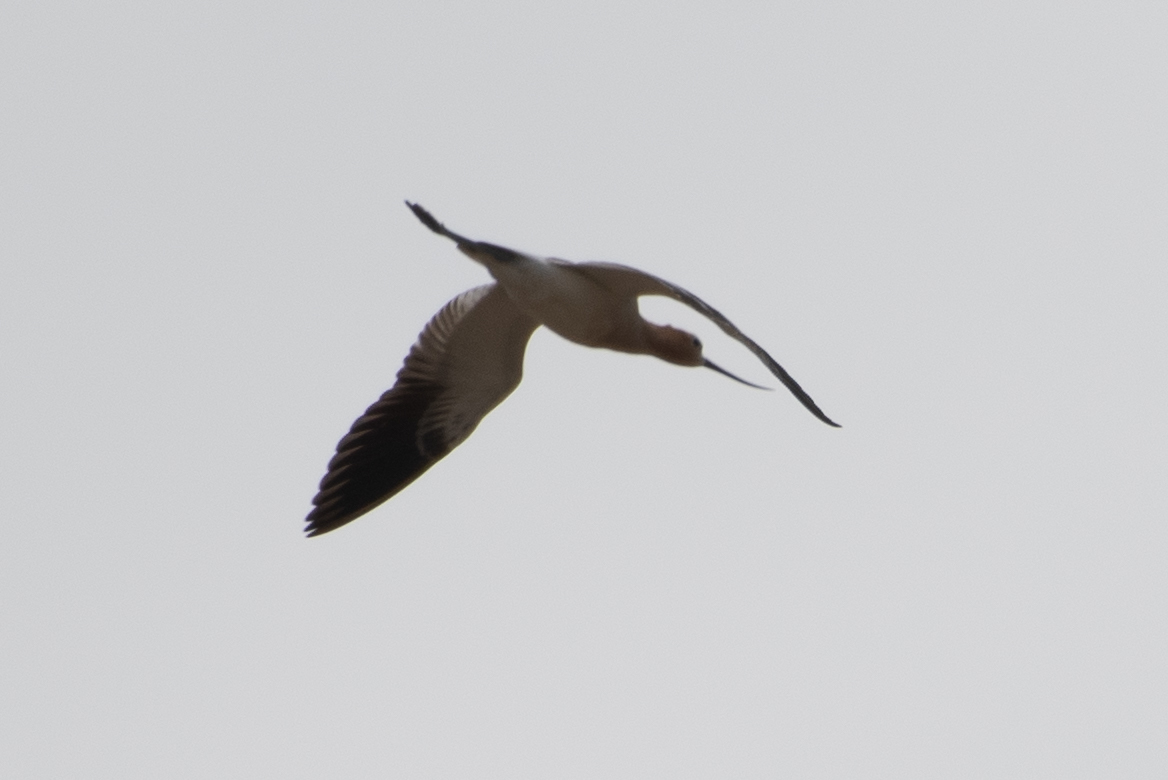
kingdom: Animalia
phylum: Chordata
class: Aves
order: Charadriiformes
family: Recurvirostridae
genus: Recurvirostra
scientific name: Recurvirostra americana
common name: American avocet
